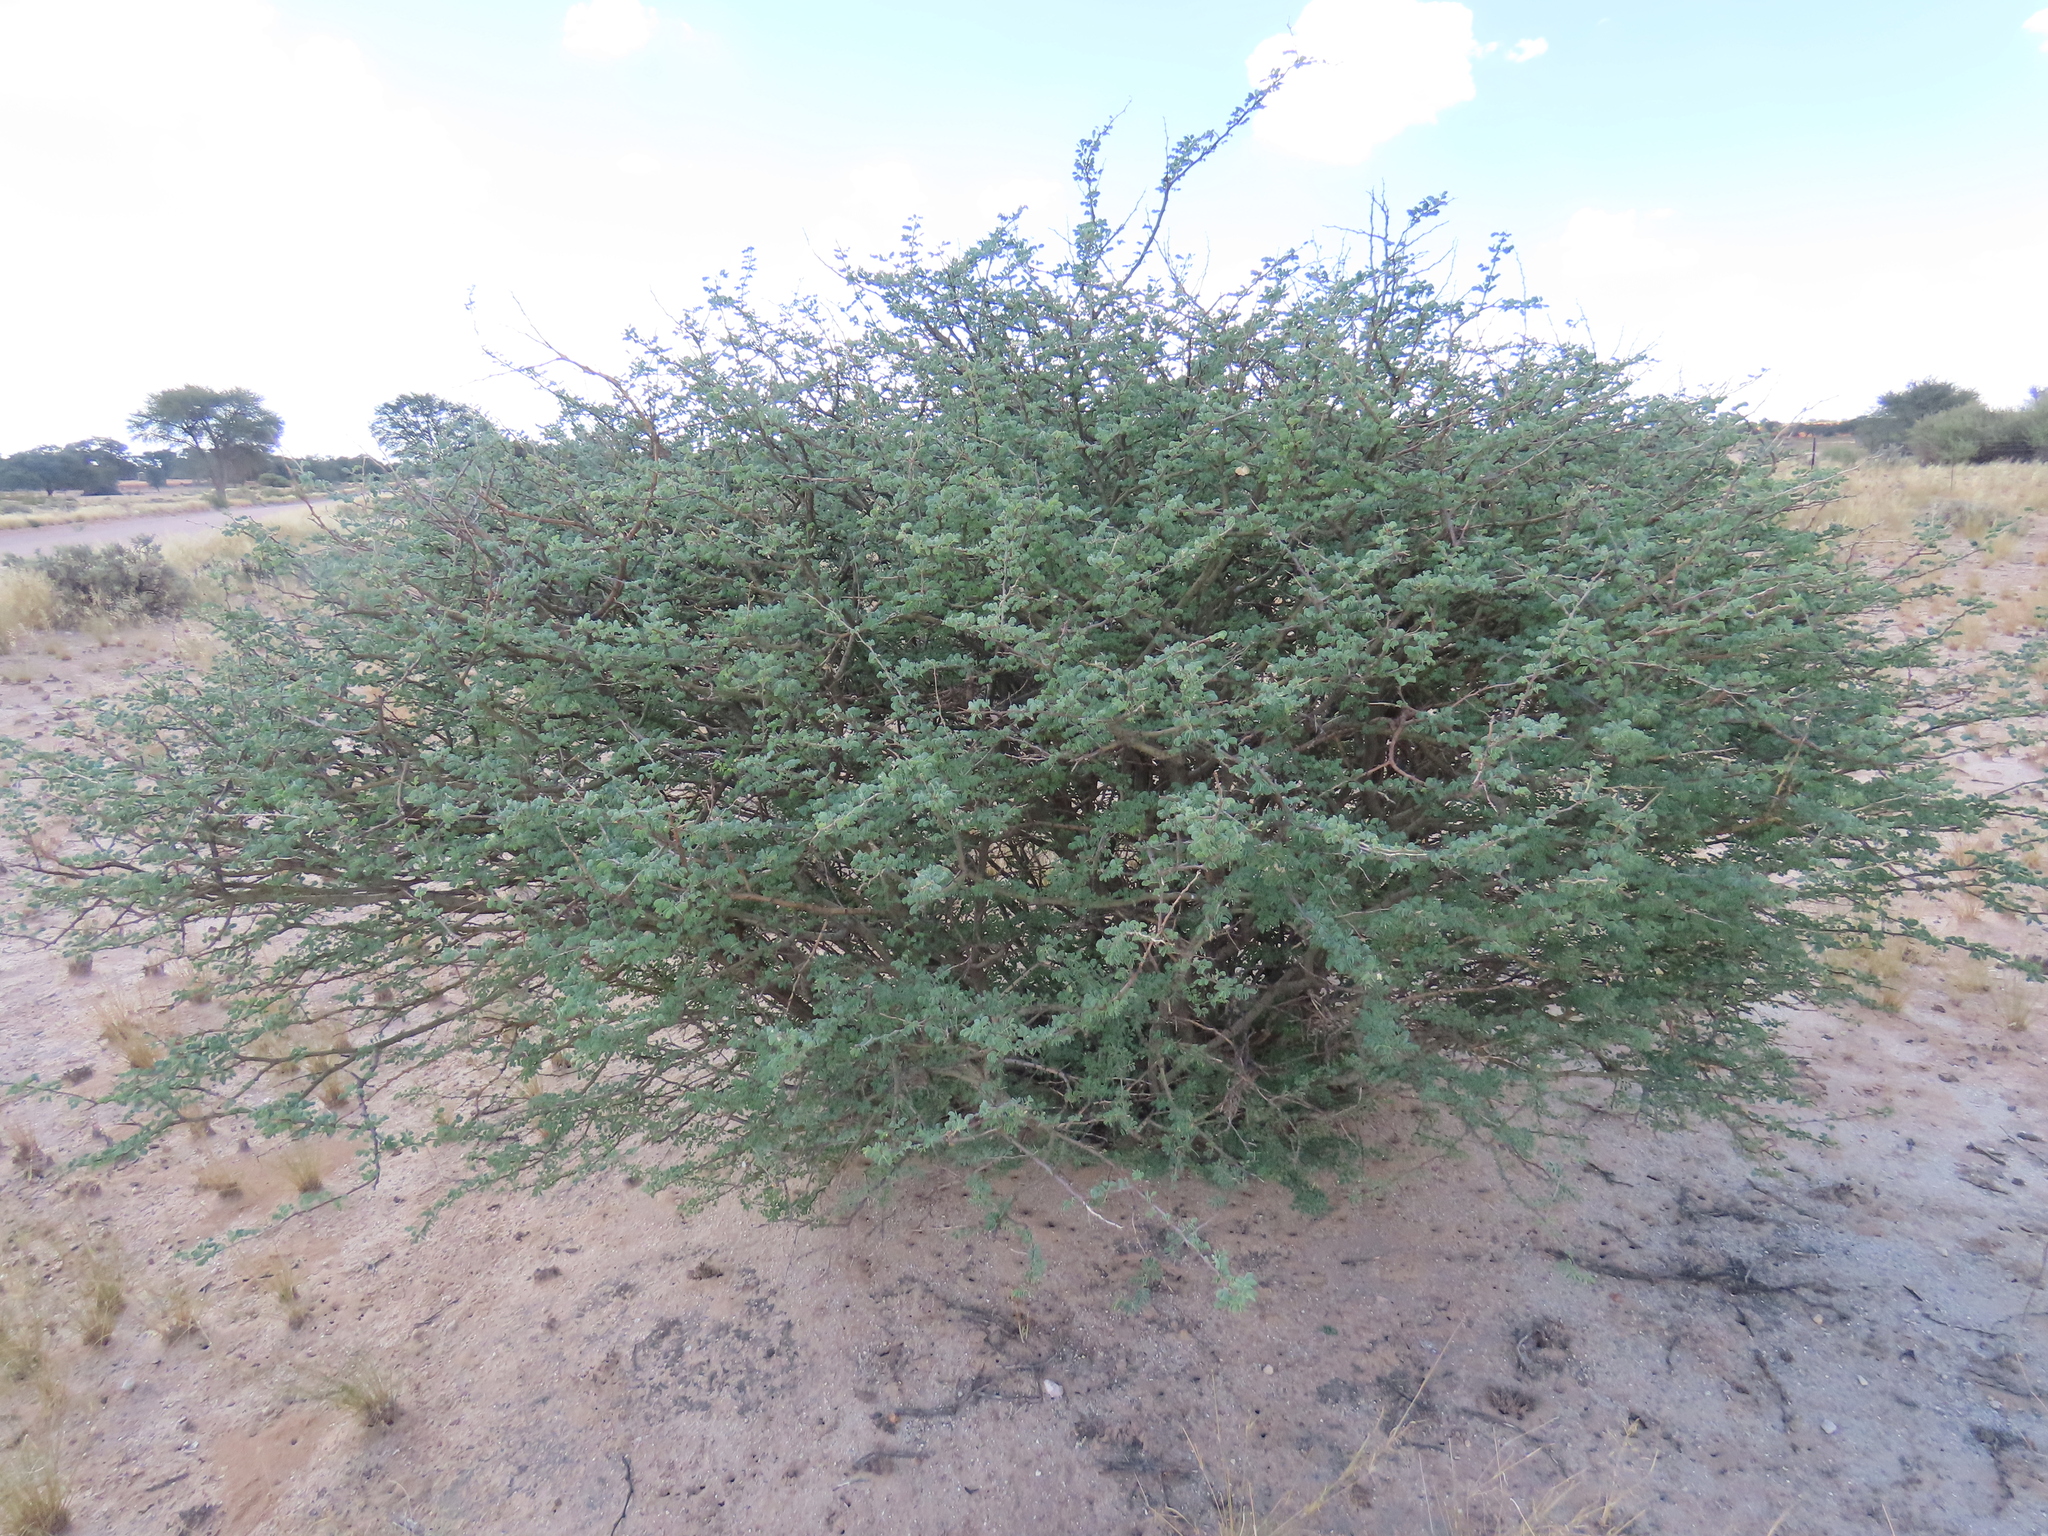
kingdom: Plantae
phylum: Tracheophyta
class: Magnoliopsida
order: Fabales
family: Fabaceae
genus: Senegalia
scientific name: Senegalia mellifera
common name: Hookthorn
